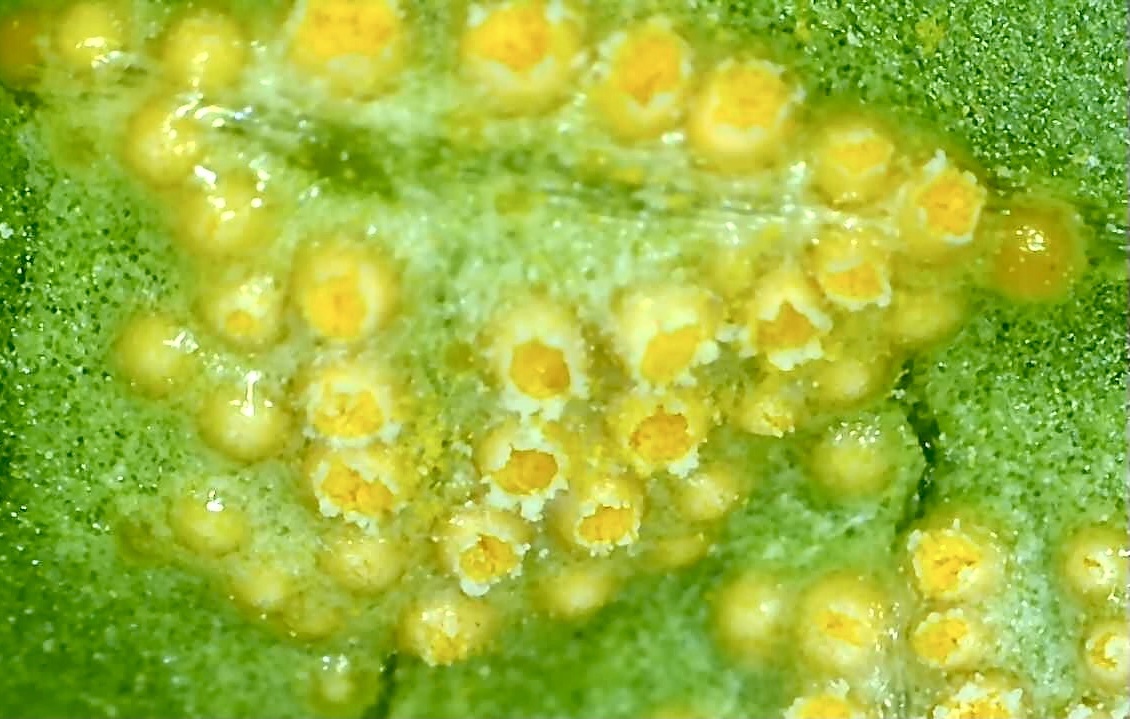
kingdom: Fungi
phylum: Basidiomycota
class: Pucciniomycetes
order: Pucciniales
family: Pucciniaceae
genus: Puccinia
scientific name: Puccinia violae
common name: Violet rust
